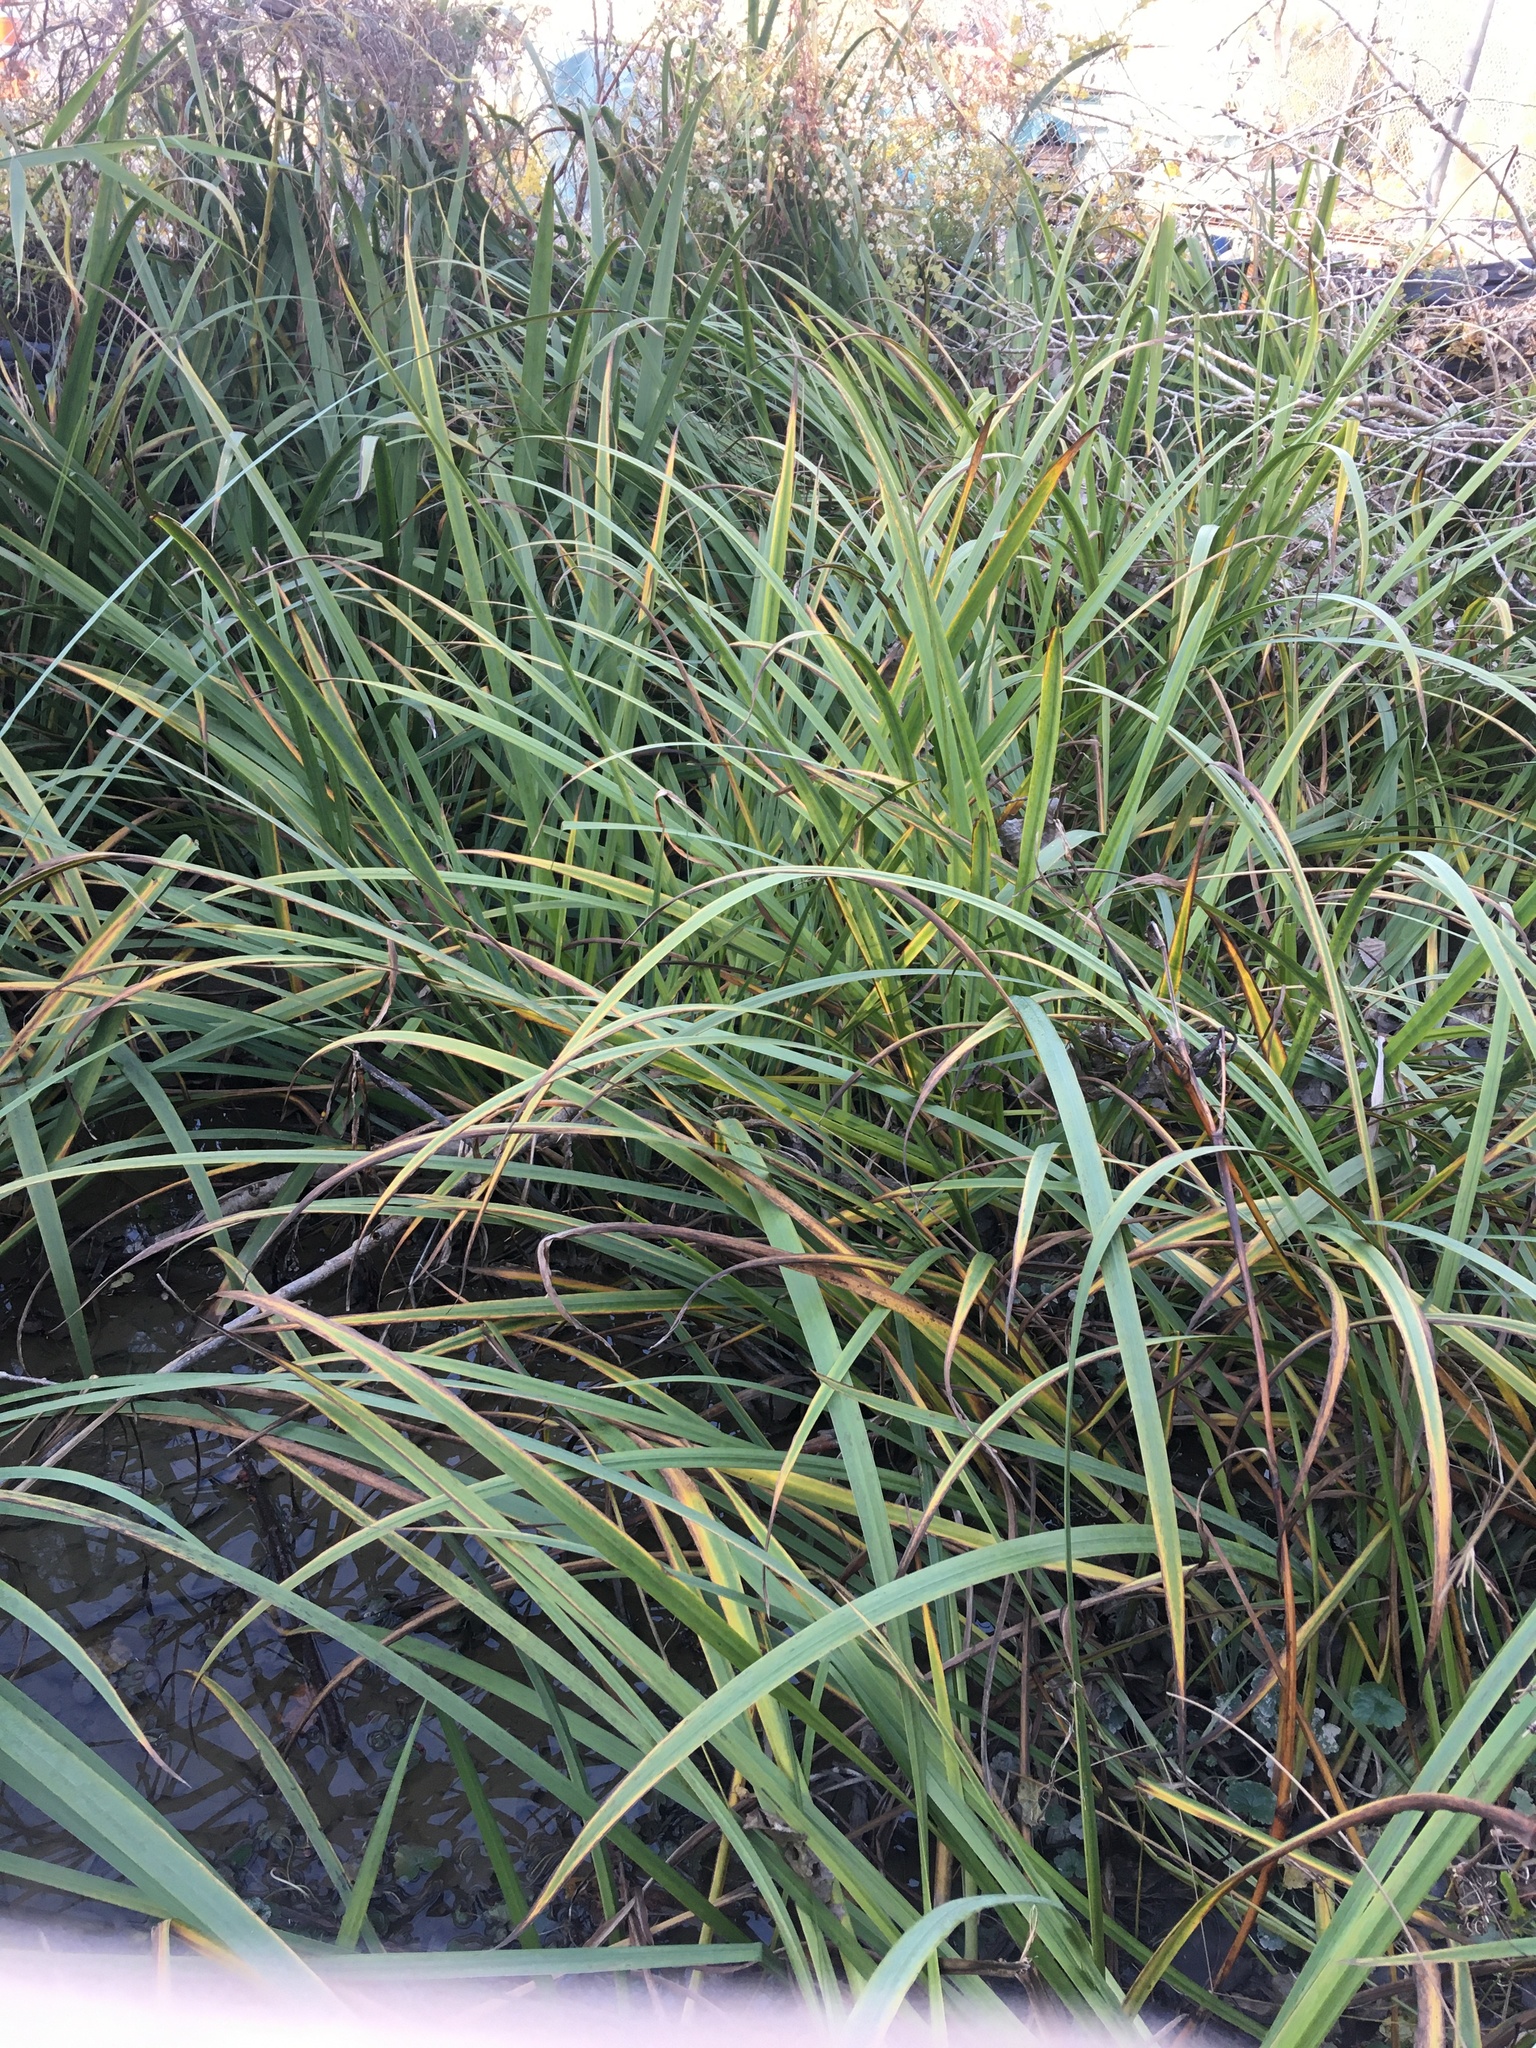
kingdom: Plantae
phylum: Tracheophyta
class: Liliopsida
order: Poales
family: Poaceae
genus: Tripsacum
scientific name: Tripsacum dactyloides
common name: Buffalo-grass
